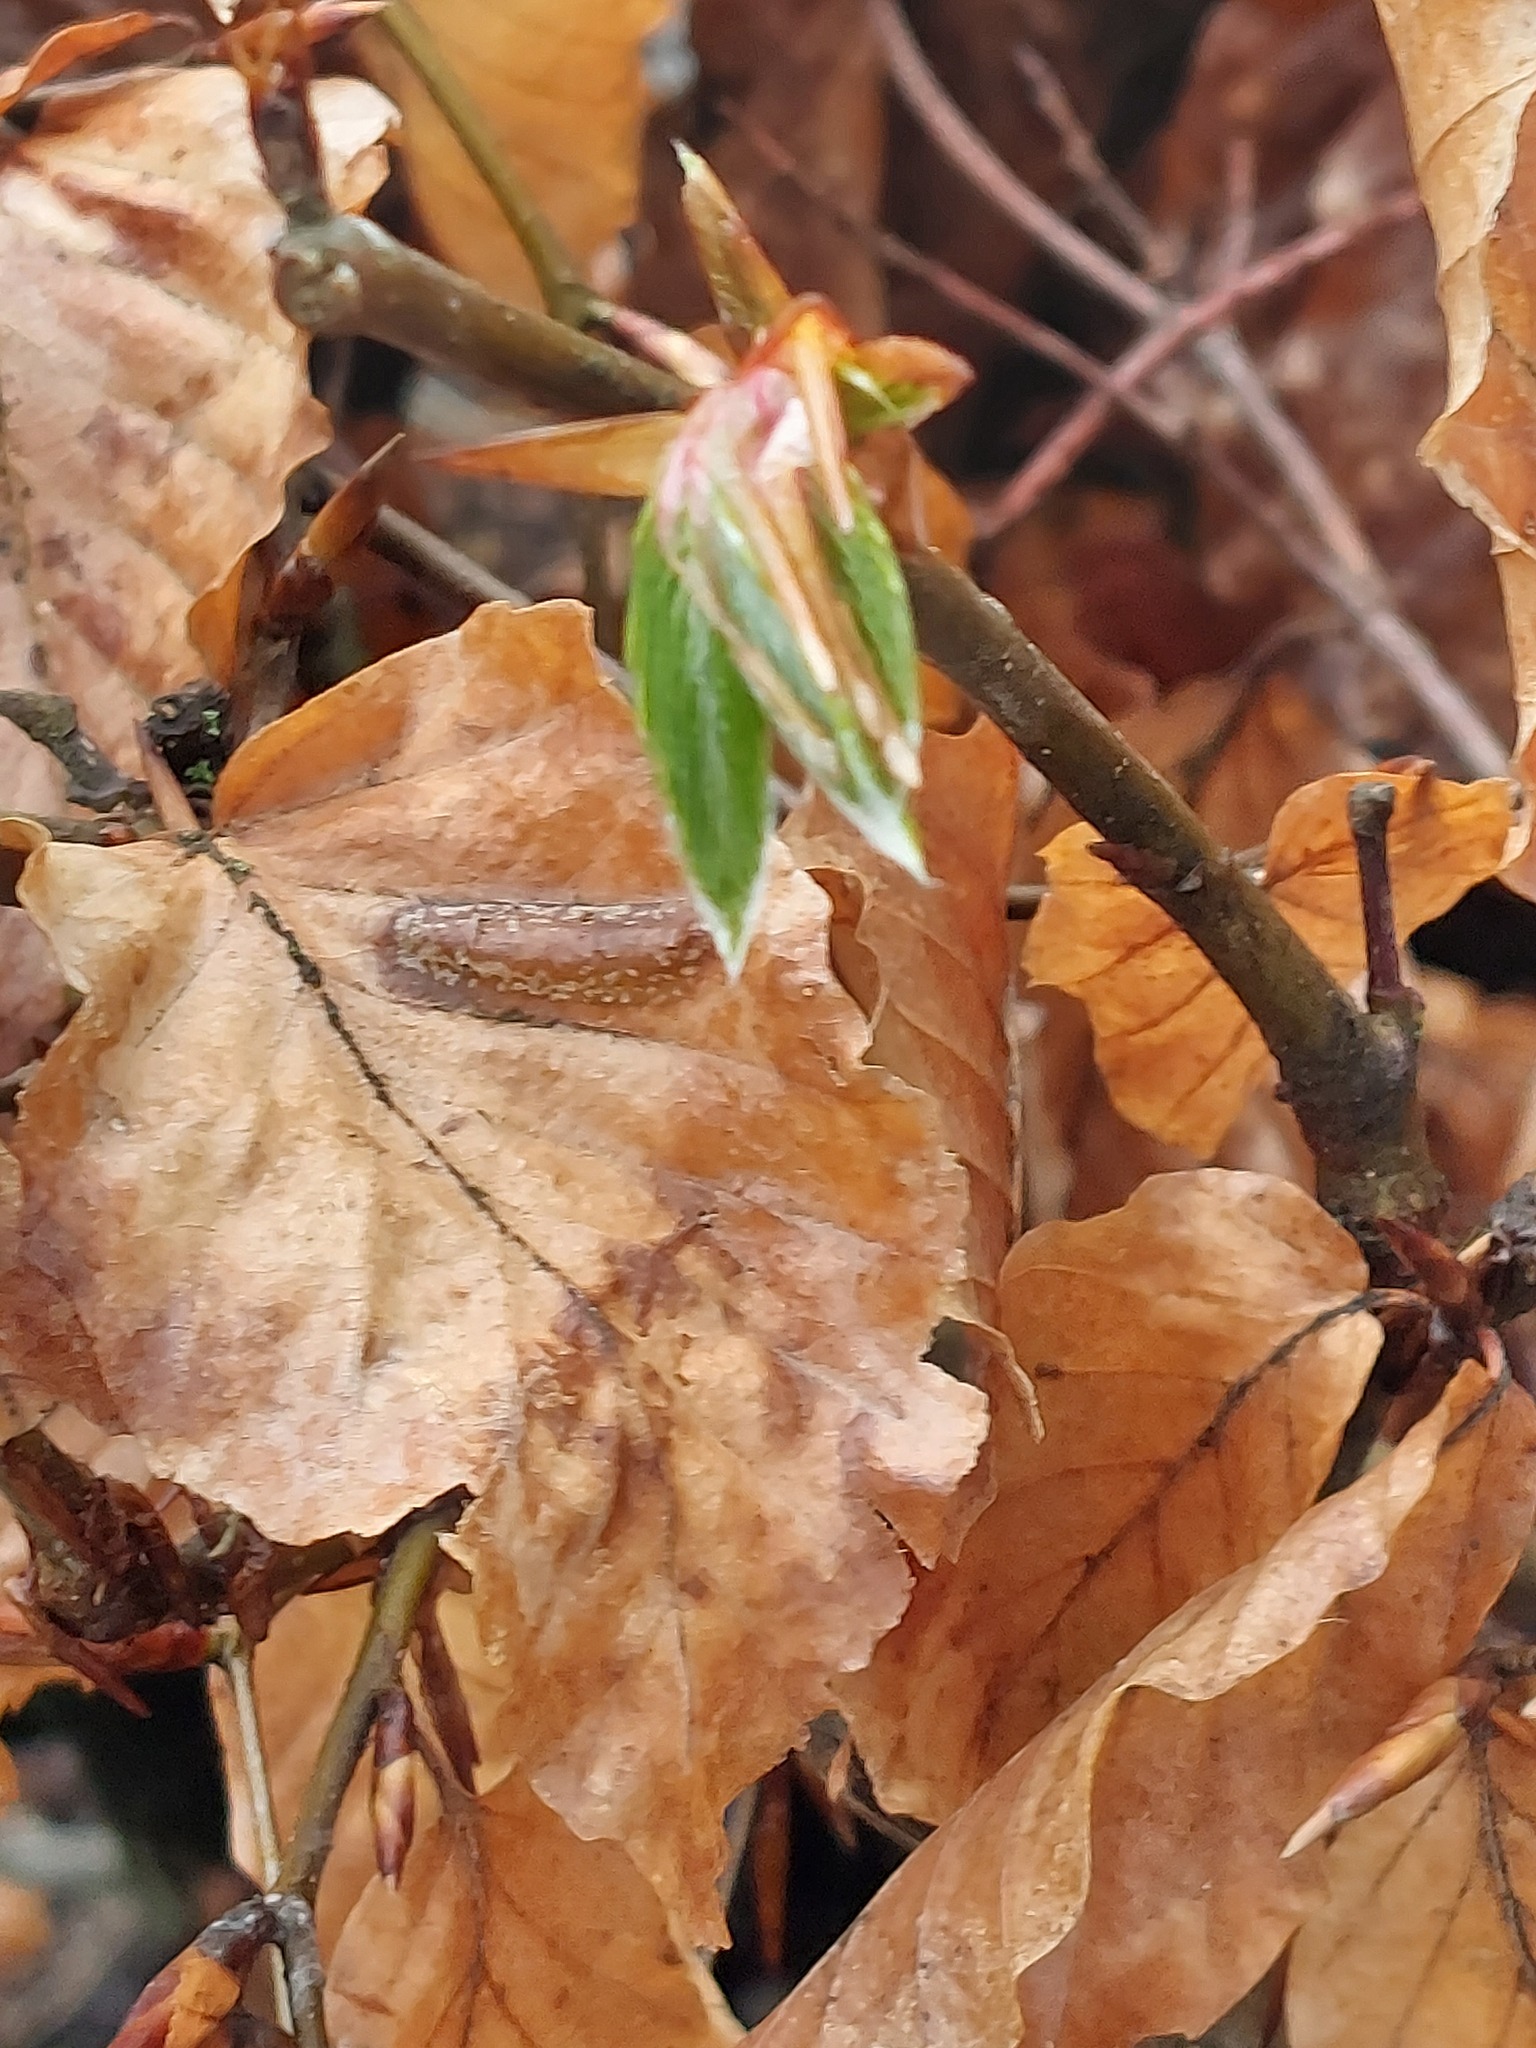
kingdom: Plantae
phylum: Tracheophyta
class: Magnoliopsida
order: Fagales
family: Fagaceae
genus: Fagus
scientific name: Fagus sylvatica
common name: Beech
